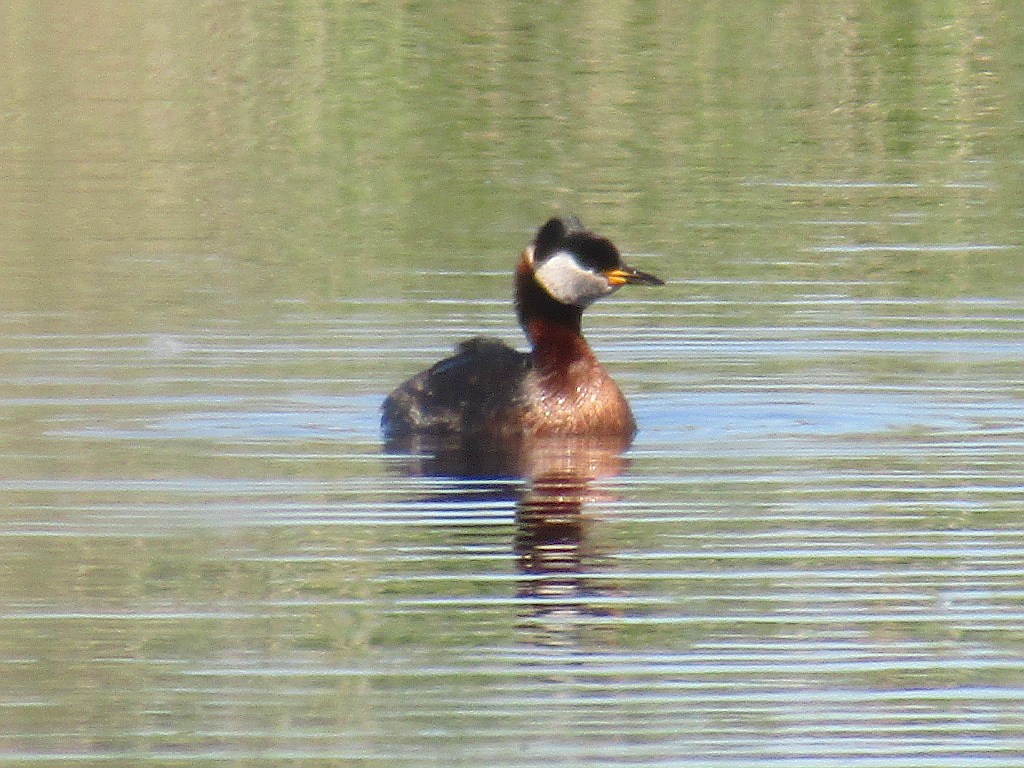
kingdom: Animalia
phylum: Chordata
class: Aves
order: Podicipediformes
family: Podicipedidae
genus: Podiceps
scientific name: Podiceps grisegena
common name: Red-necked grebe
